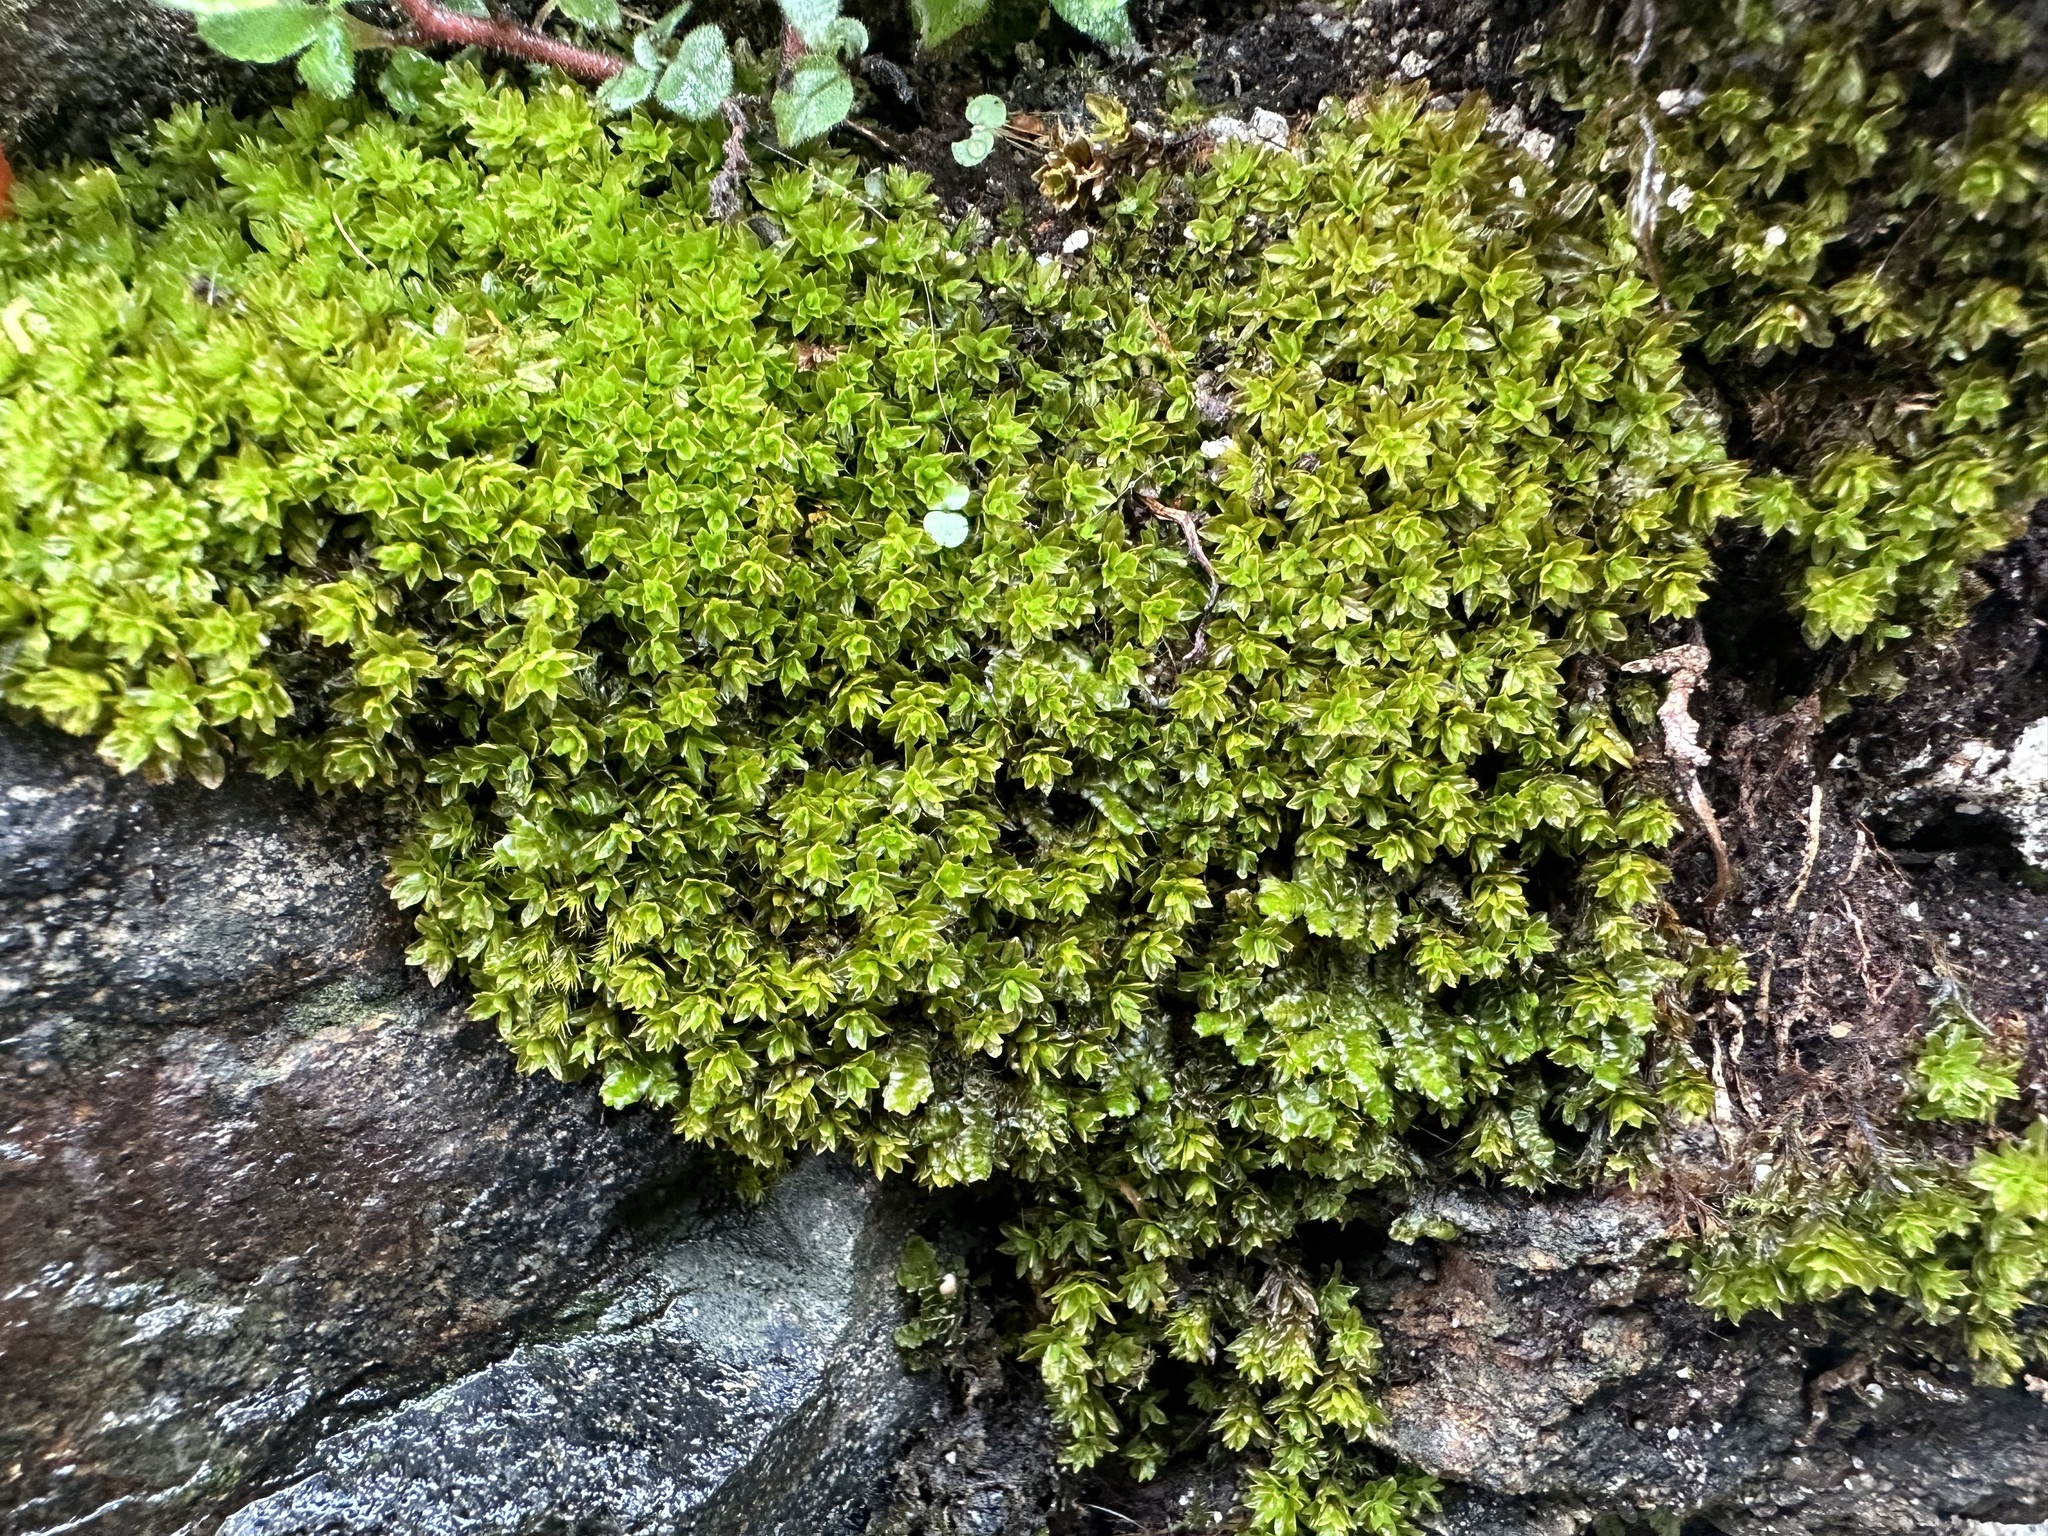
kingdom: Plantae
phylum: Bryophyta
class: Bryopsida
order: Encalyptales
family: Encalyptaceae
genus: Encalypta
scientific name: Encalypta streptocarpa
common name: Spiral extinguisher-moss
